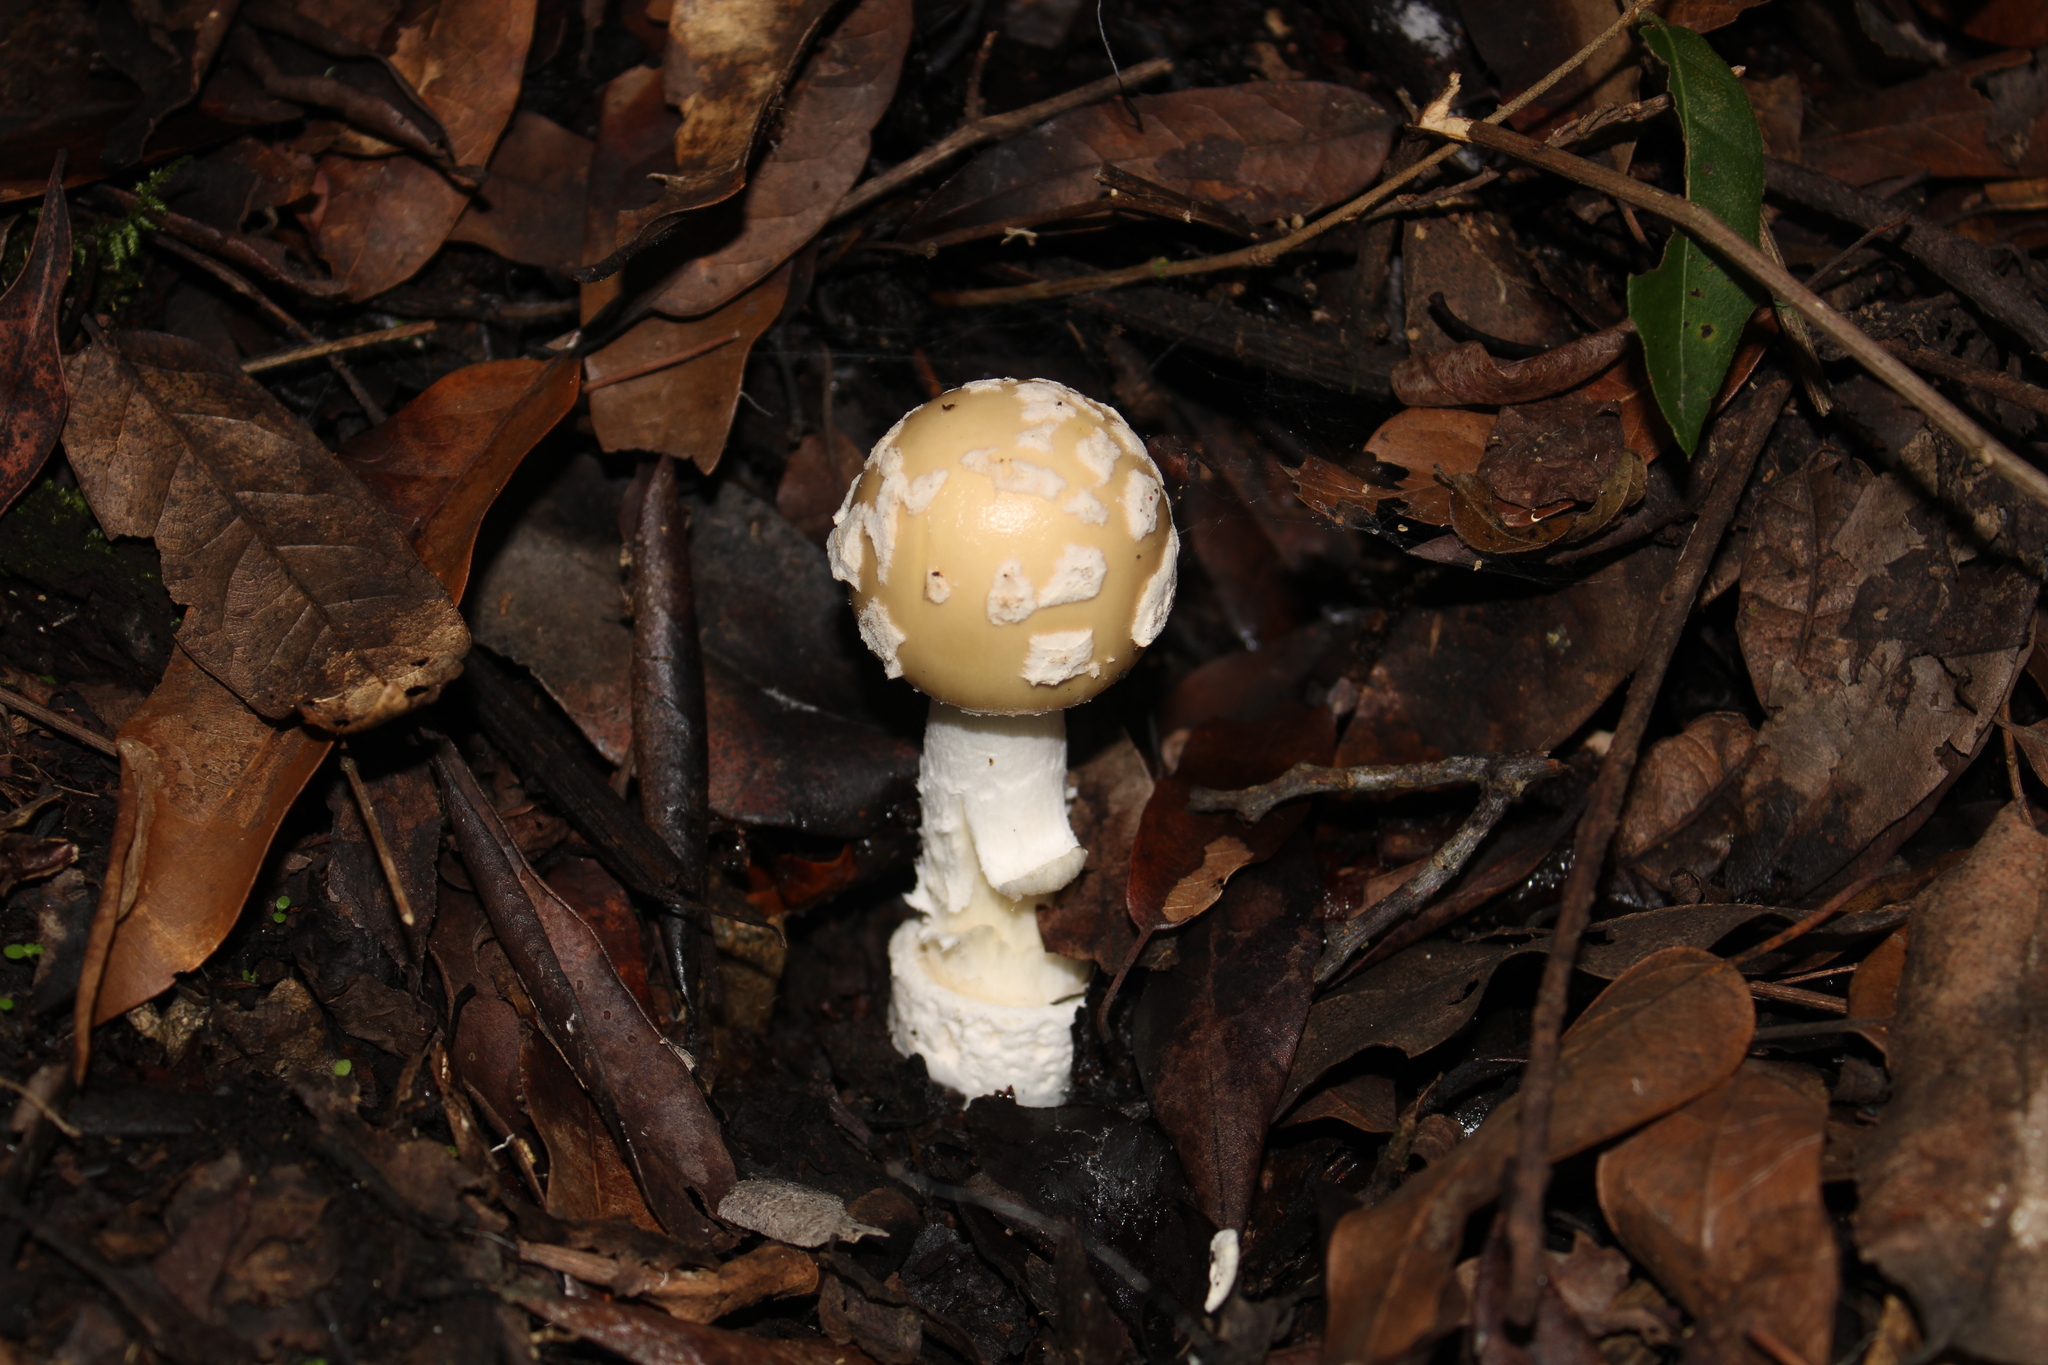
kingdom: Fungi
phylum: Basidiomycota
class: Agaricomycetes
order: Agaricales
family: Amanitaceae
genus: Amanita
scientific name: Amanita xylinivolva
